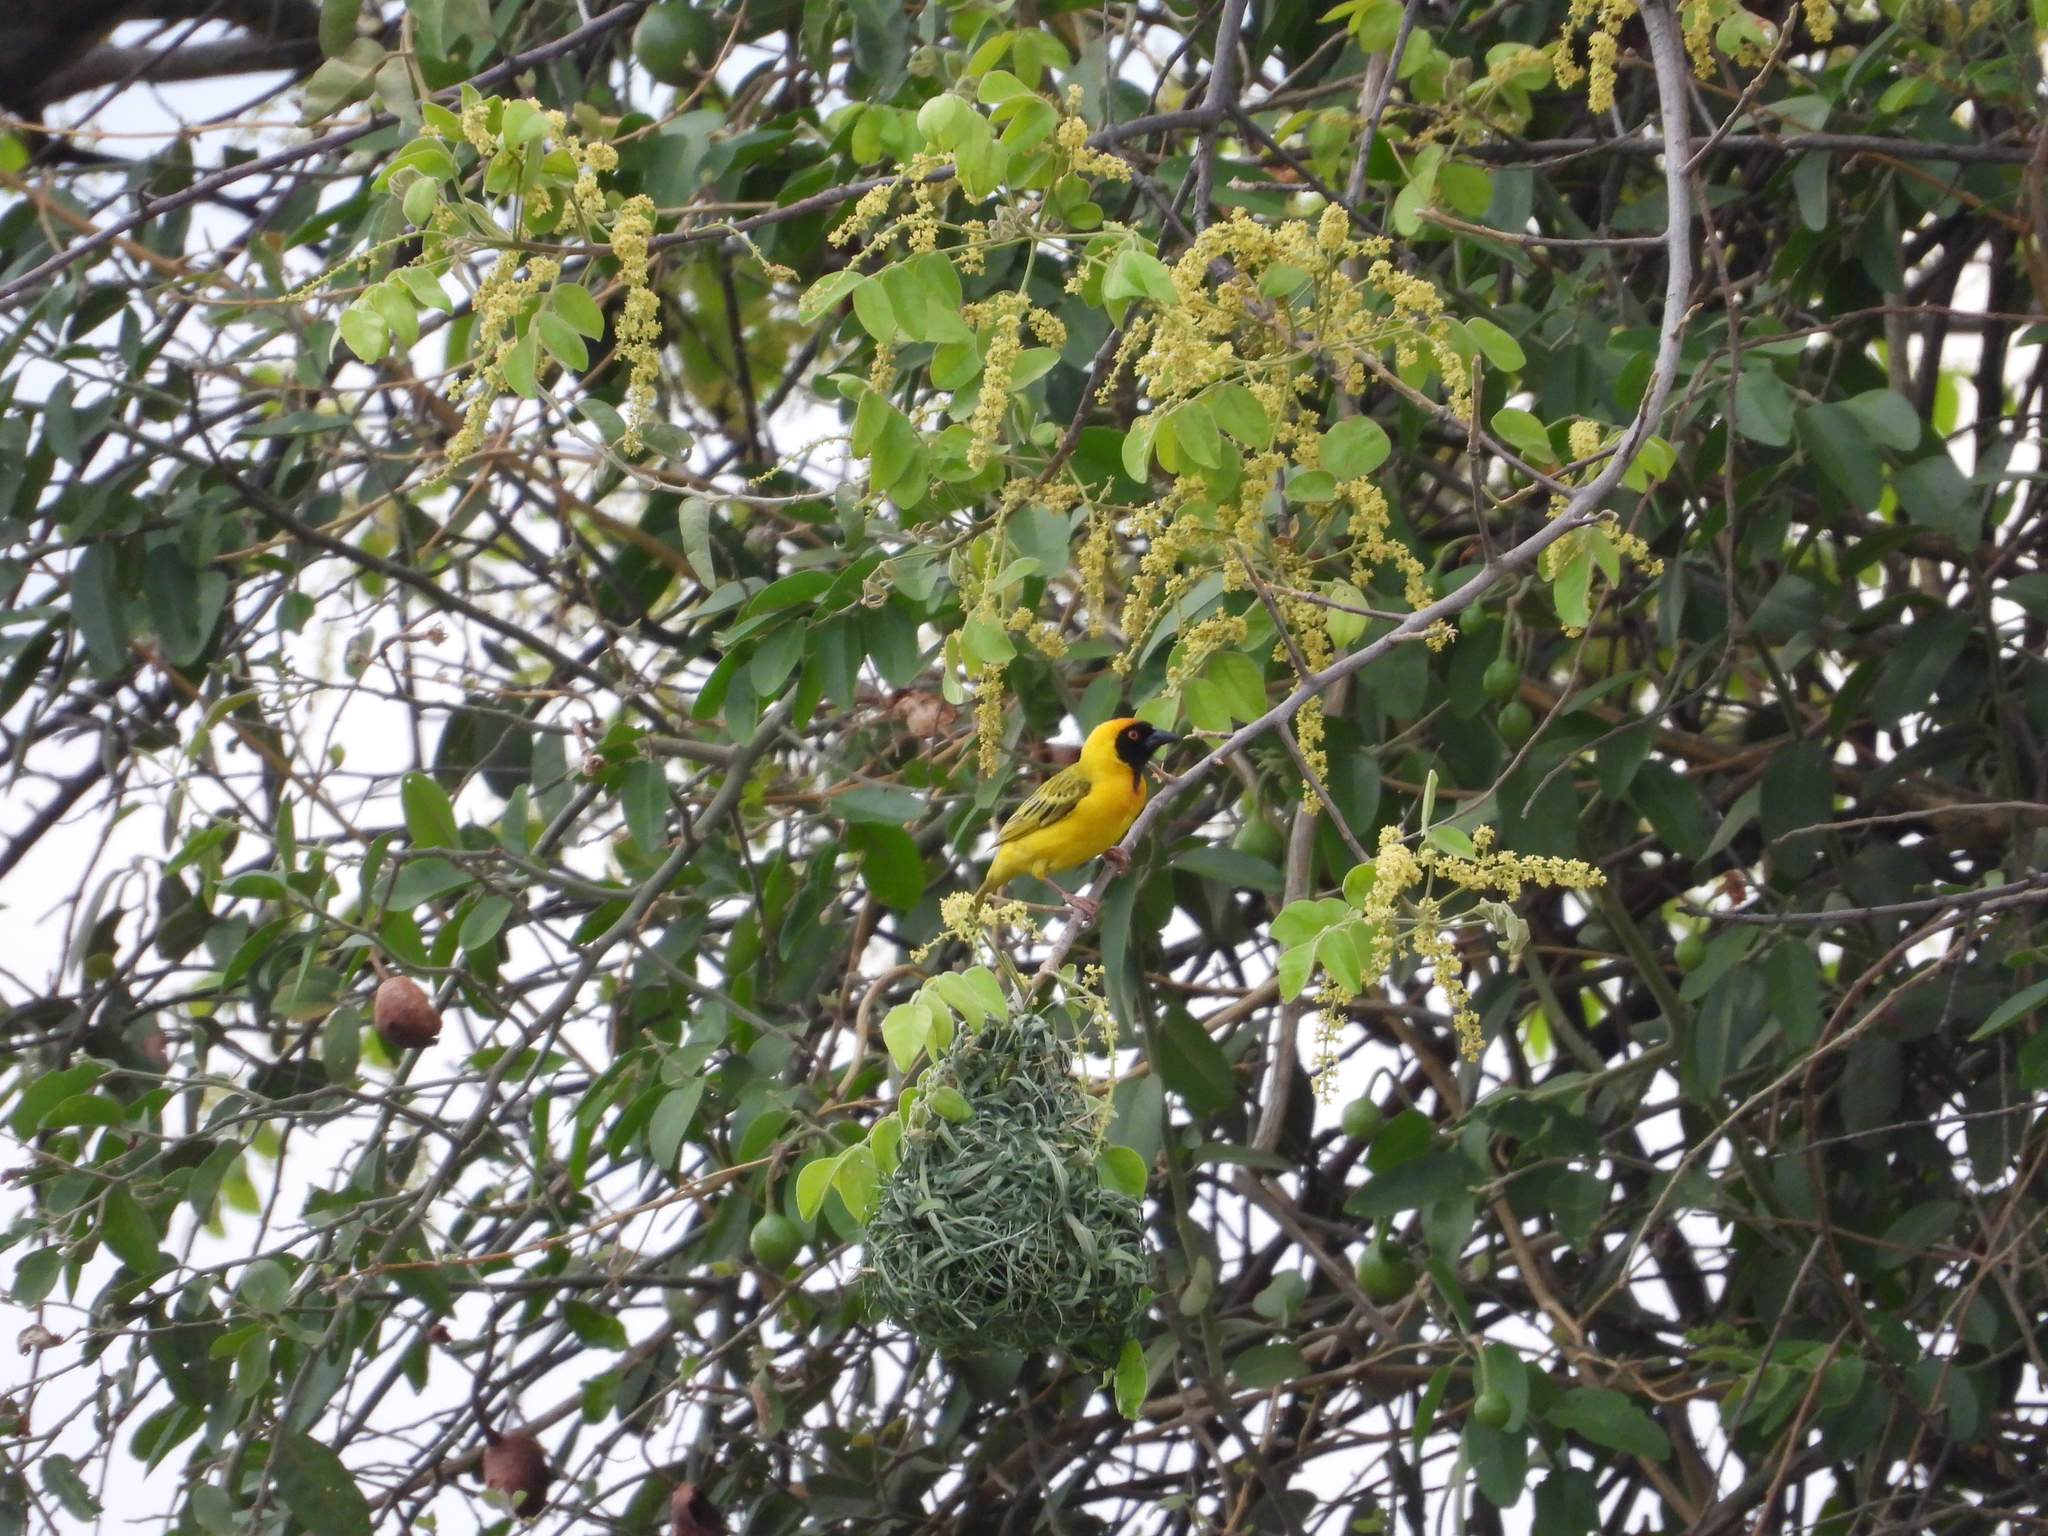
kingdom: Animalia
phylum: Chordata
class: Aves
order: Passeriformes
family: Ploceidae
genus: Ploceus
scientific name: Ploceus velatus
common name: Southern masked weaver
